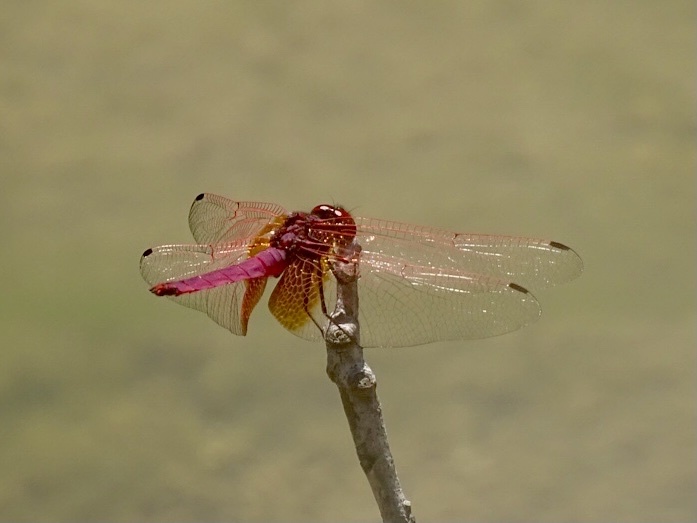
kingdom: Animalia
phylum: Arthropoda
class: Insecta
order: Odonata
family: Libellulidae
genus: Trithemis
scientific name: Trithemis aurora
